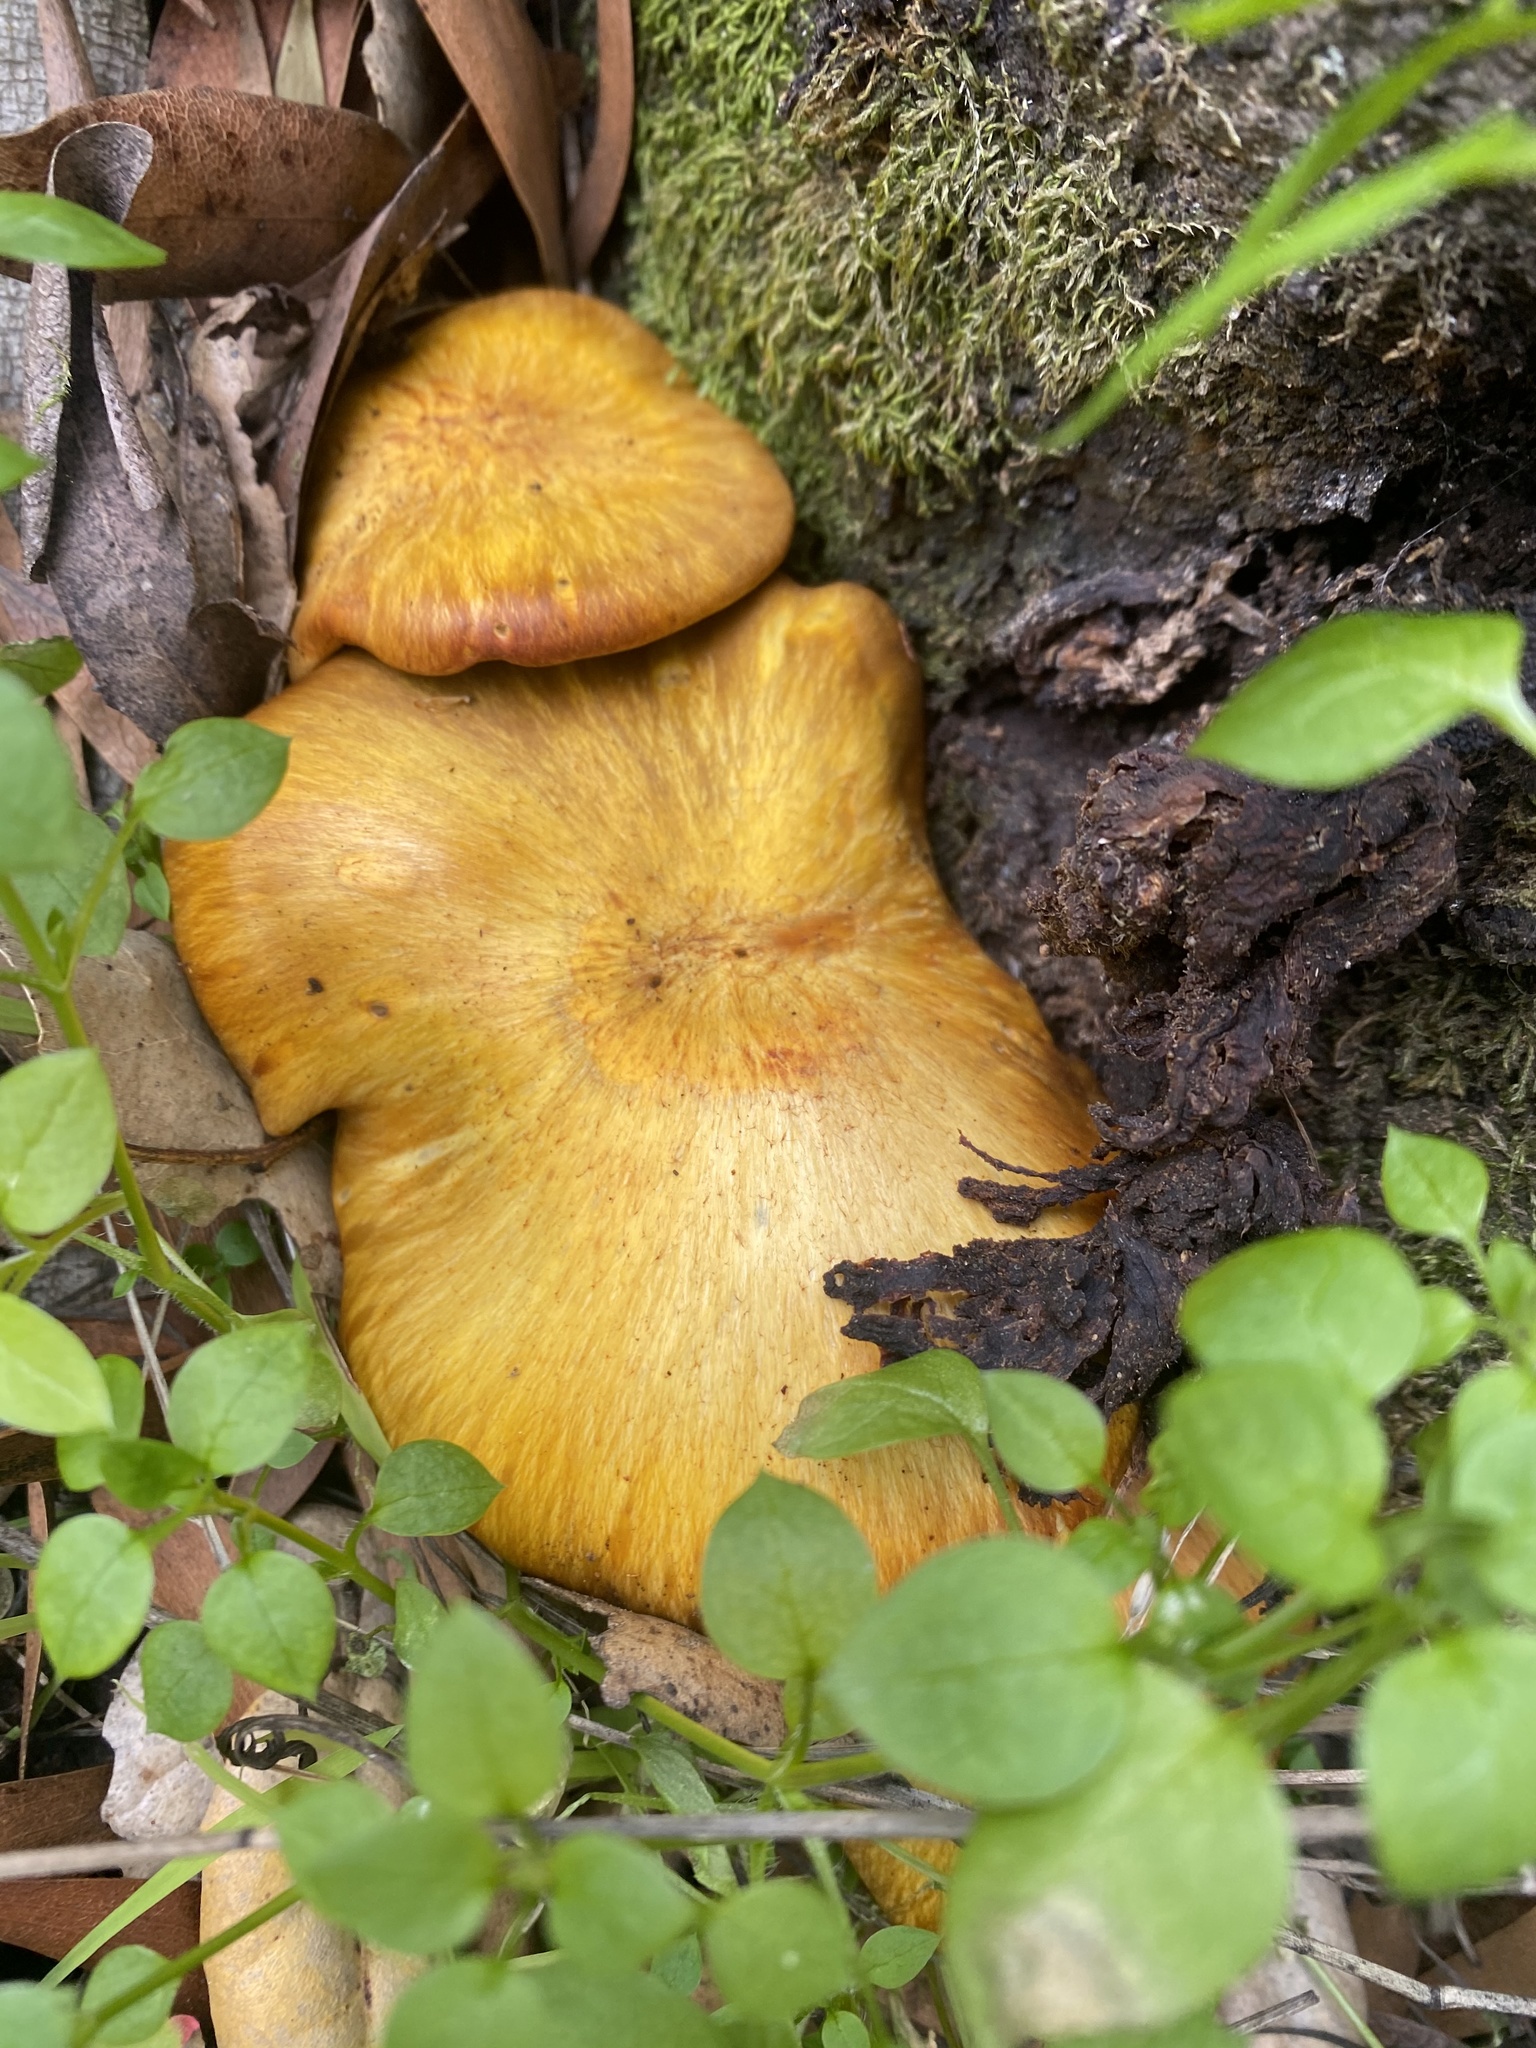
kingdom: Fungi
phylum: Basidiomycota
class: Agaricomycetes
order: Agaricales
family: Omphalotaceae
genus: Omphalotus
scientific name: Omphalotus olivascens
